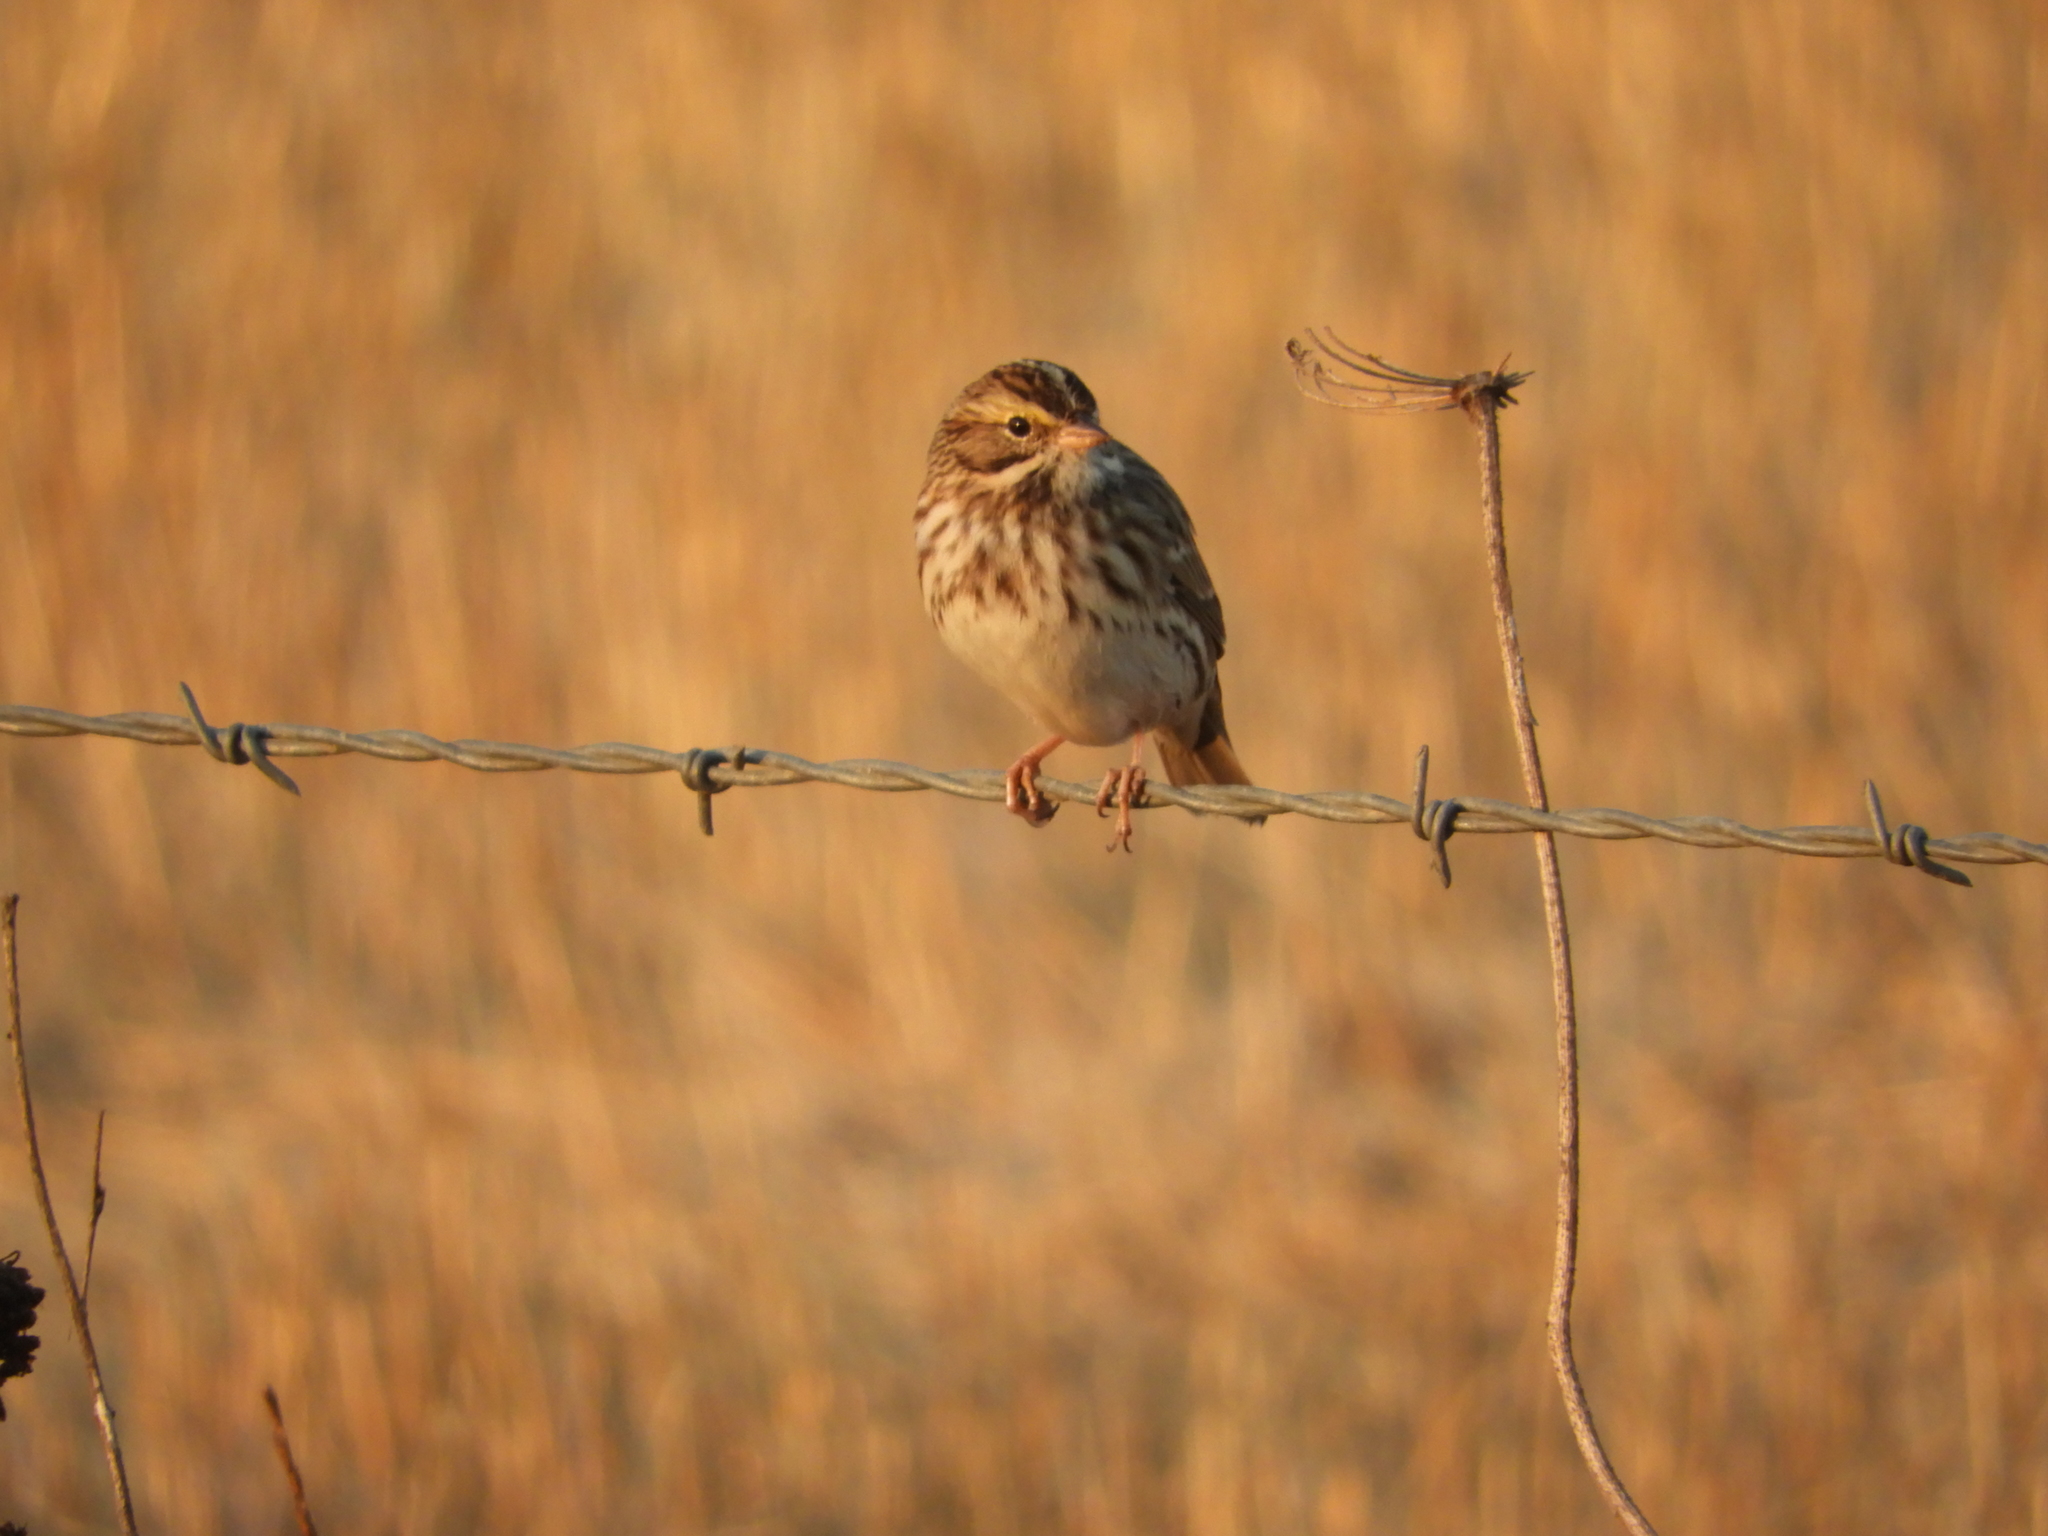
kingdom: Animalia
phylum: Chordata
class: Aves
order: Passeriformes
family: Passerellidae
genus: Passerculus
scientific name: Passerculus sandwichensis
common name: Savannah sparrow
